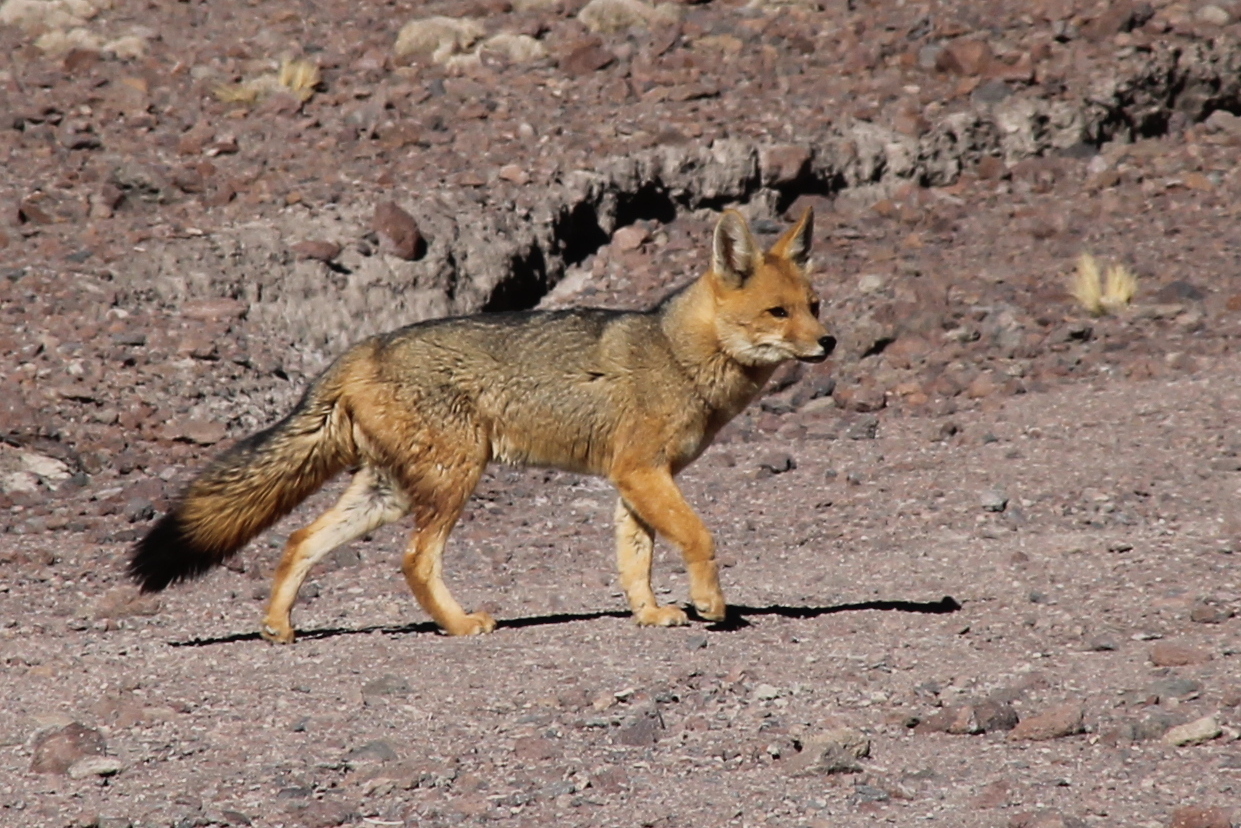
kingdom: Animalia
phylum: Chordata
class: Mammalia
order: Carnivora
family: Canidae
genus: Lycalopex
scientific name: Lycalopex culpaeus
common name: Culpeo
